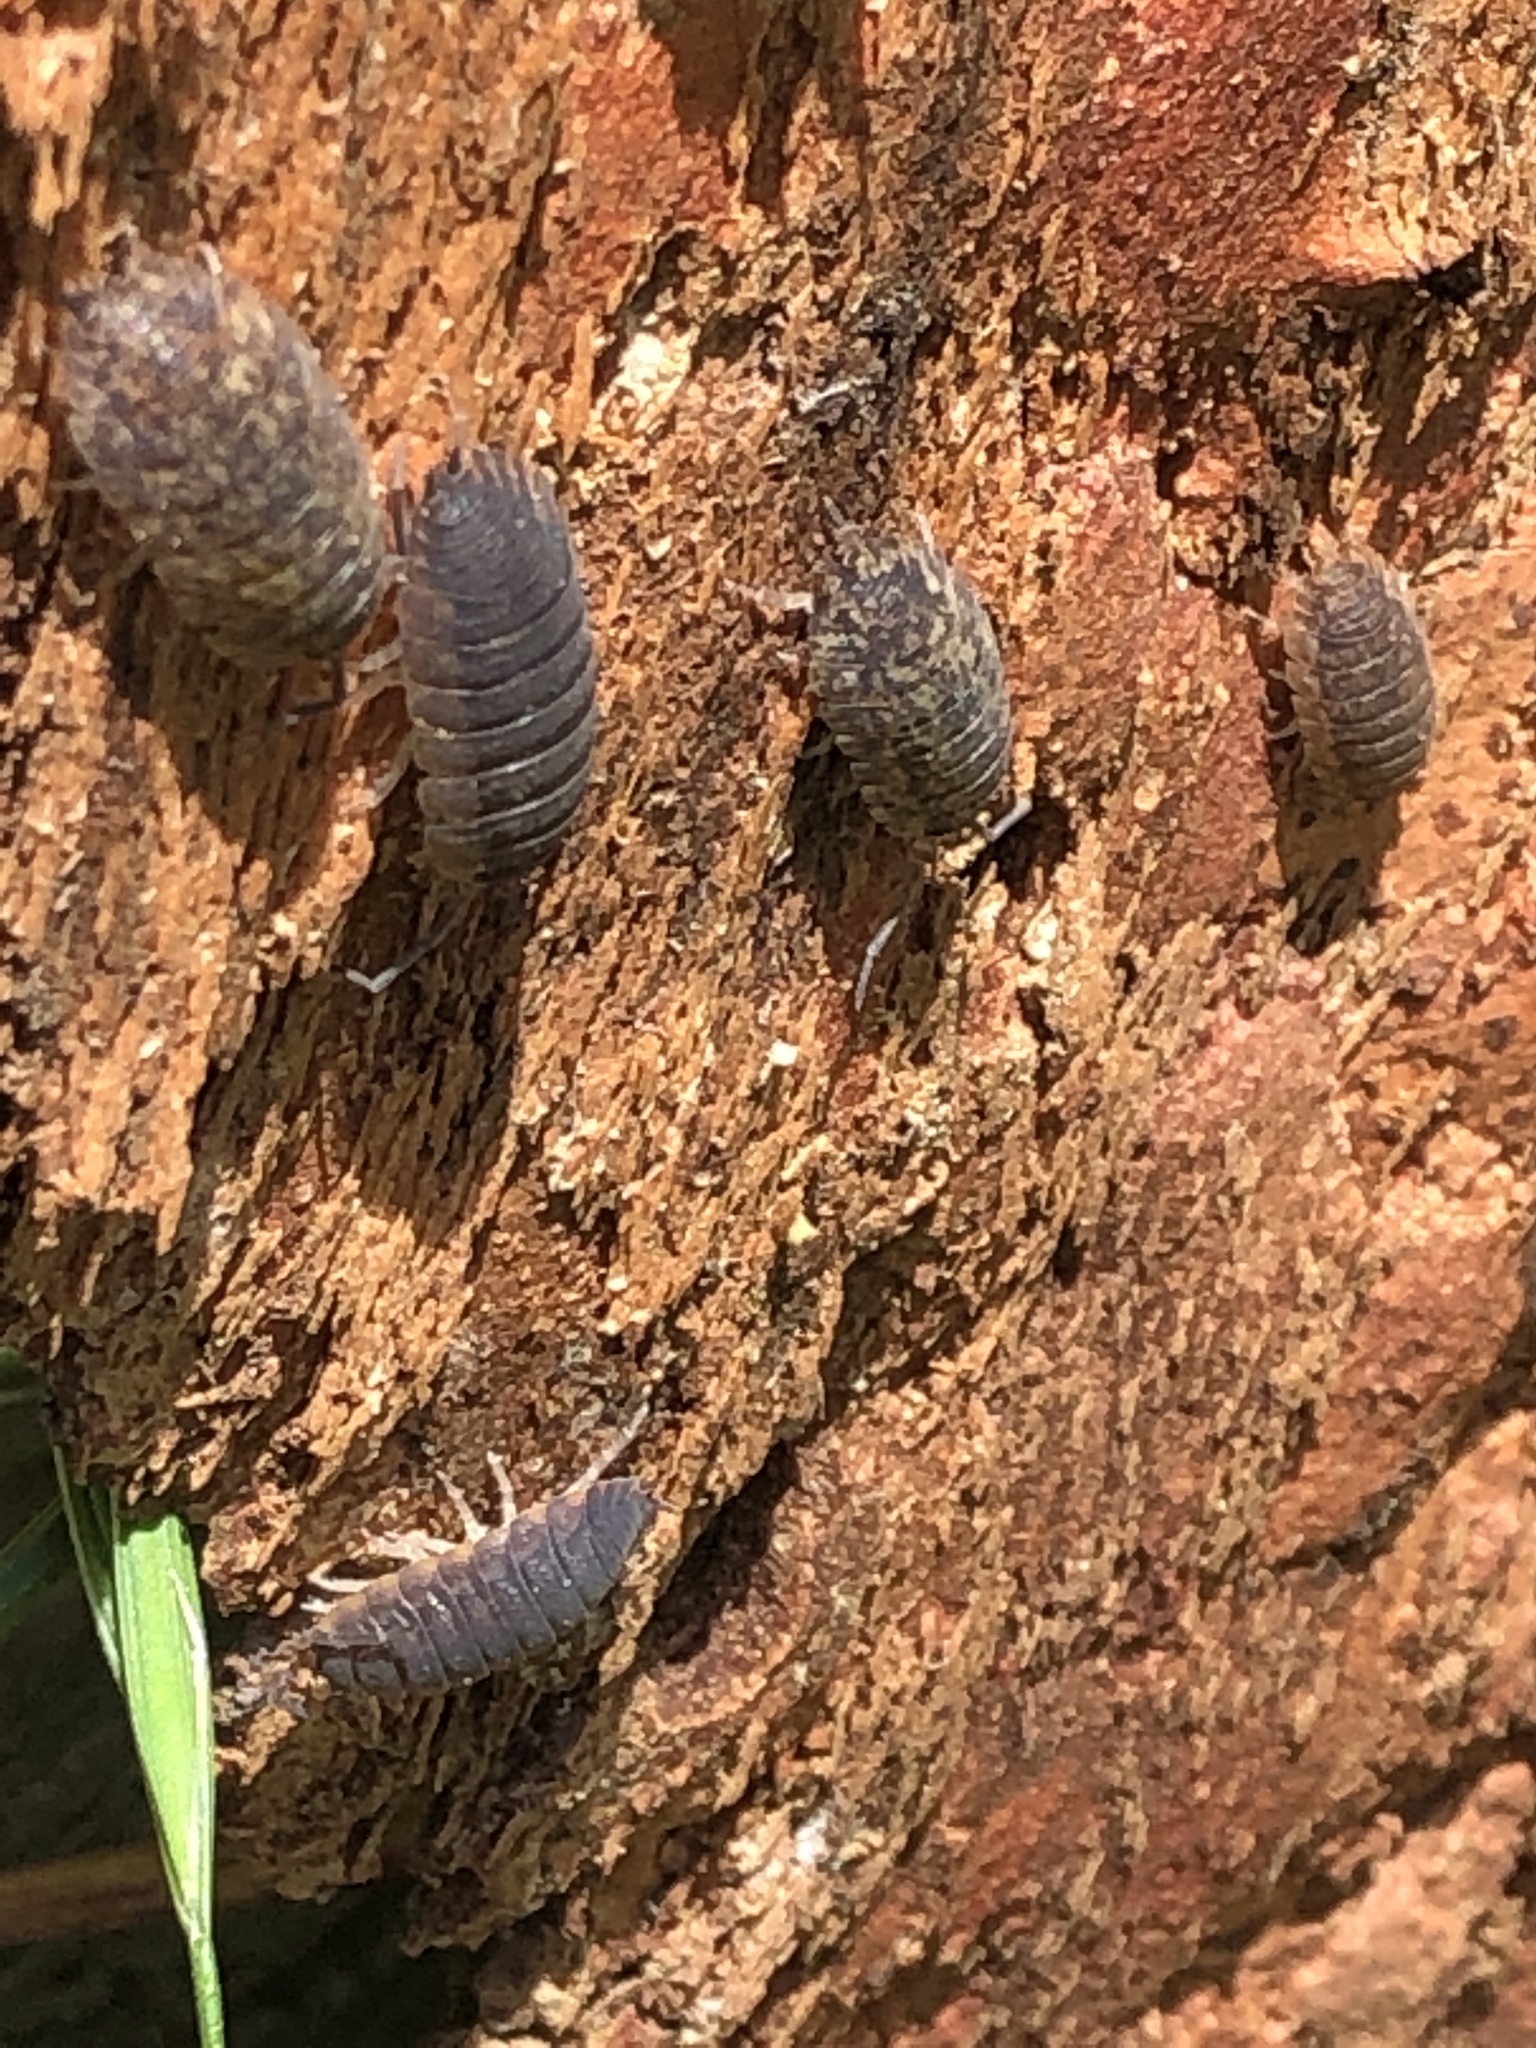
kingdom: Animalia
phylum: Arthropoda
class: Malacostraca
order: Isopoda
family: Porcellionidae
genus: Porcellio
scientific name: Porcellio scaber
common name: Common rough woodlouse
